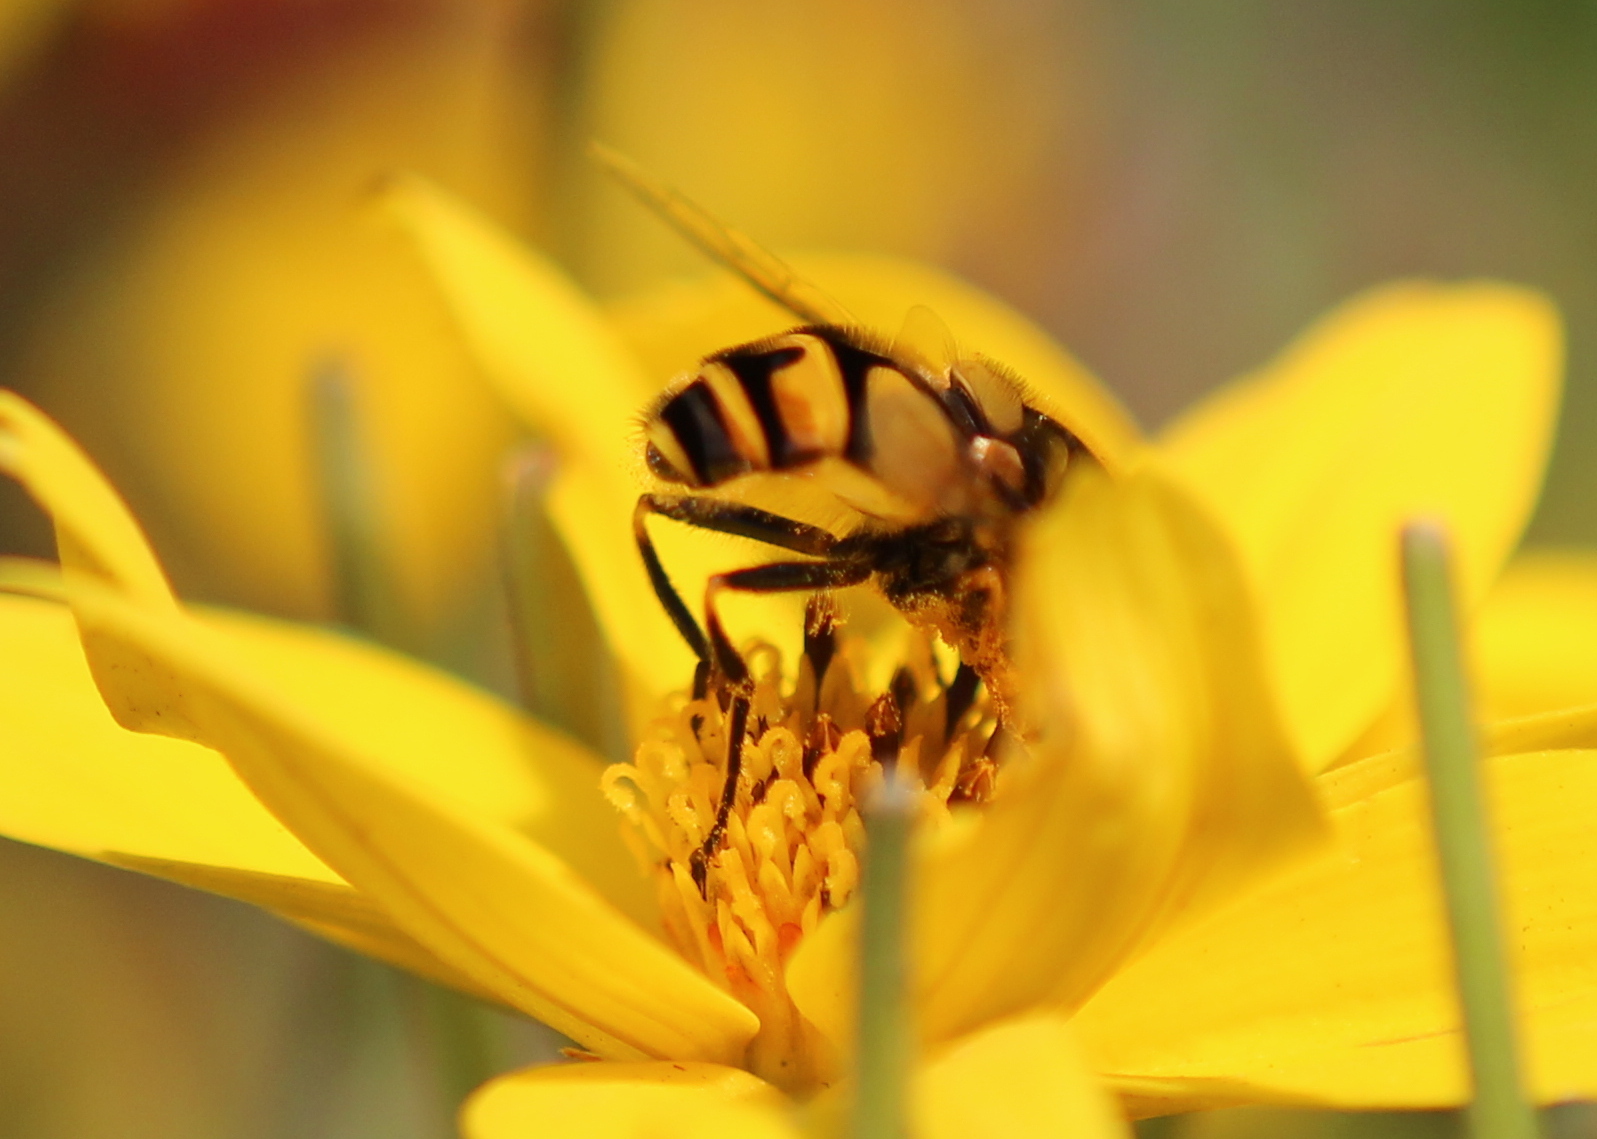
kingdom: Animalia
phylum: Arthropoda
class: Insecta
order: Diptera
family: Syrphidae
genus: Eristalis
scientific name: Eristalis transversa
